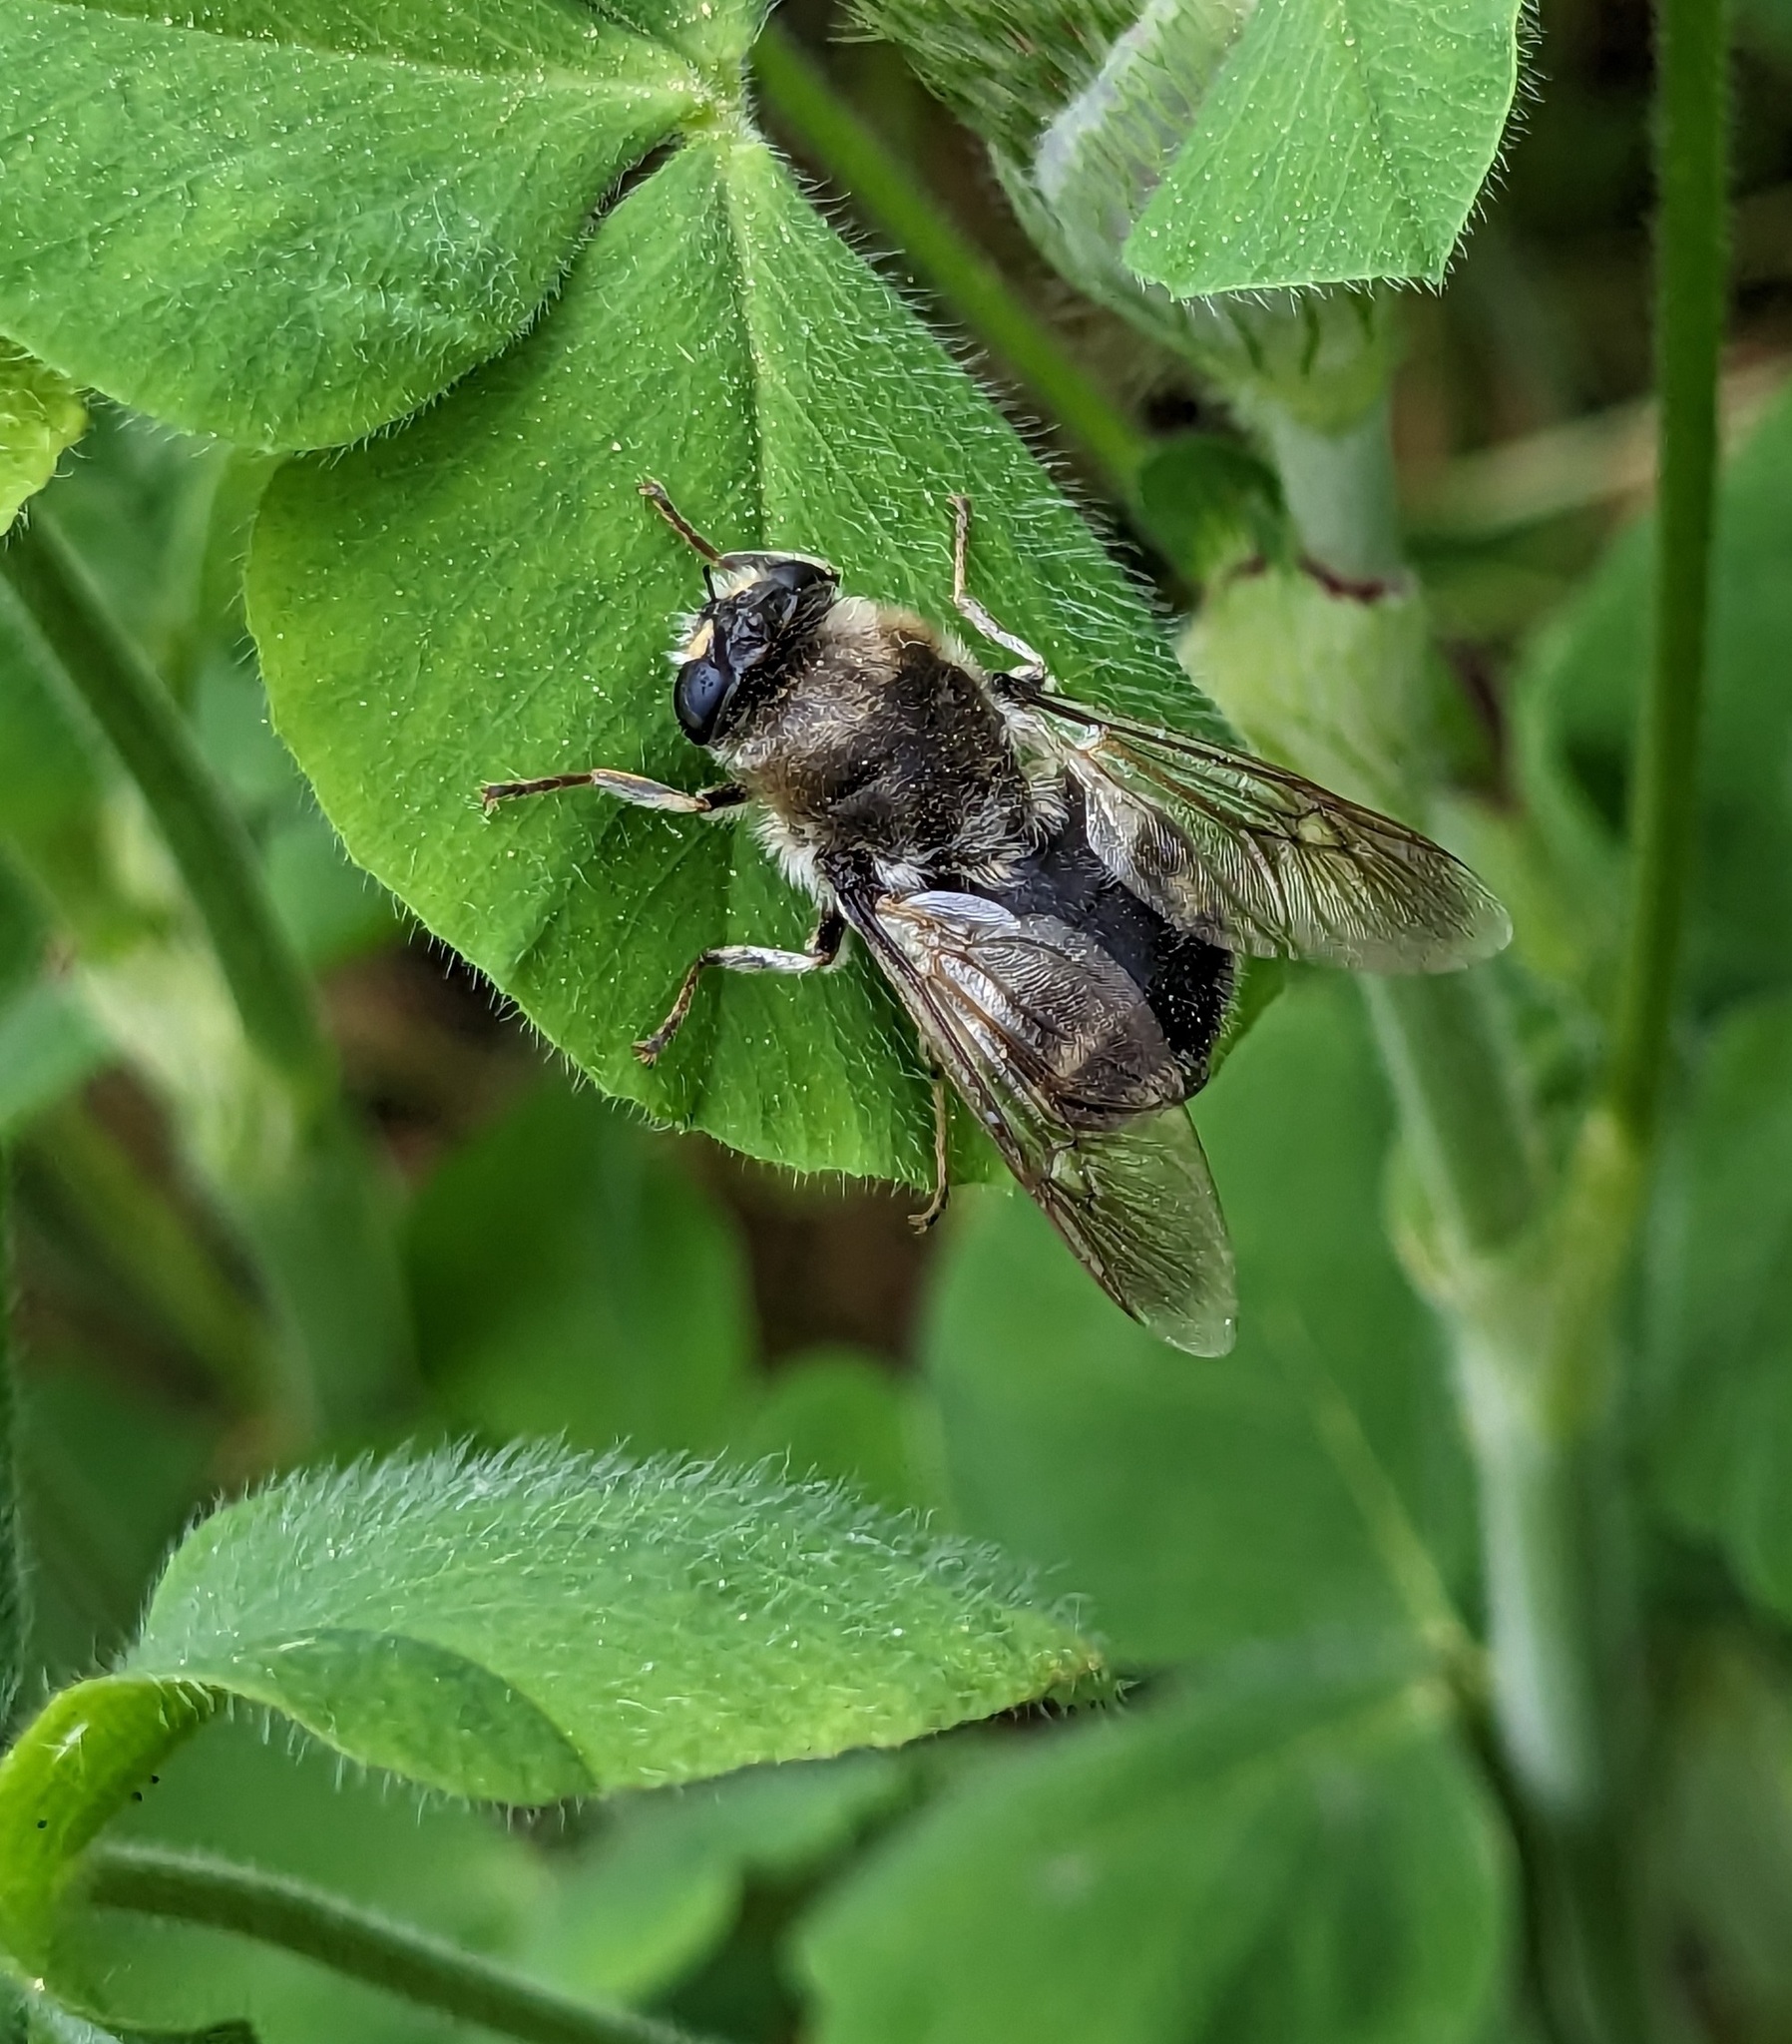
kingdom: Animalia
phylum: Arthropoda
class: Insecta
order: Diptera
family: Stratiomyidae
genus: Stratiomys
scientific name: Stratiomys longicornis
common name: Long-horned general
